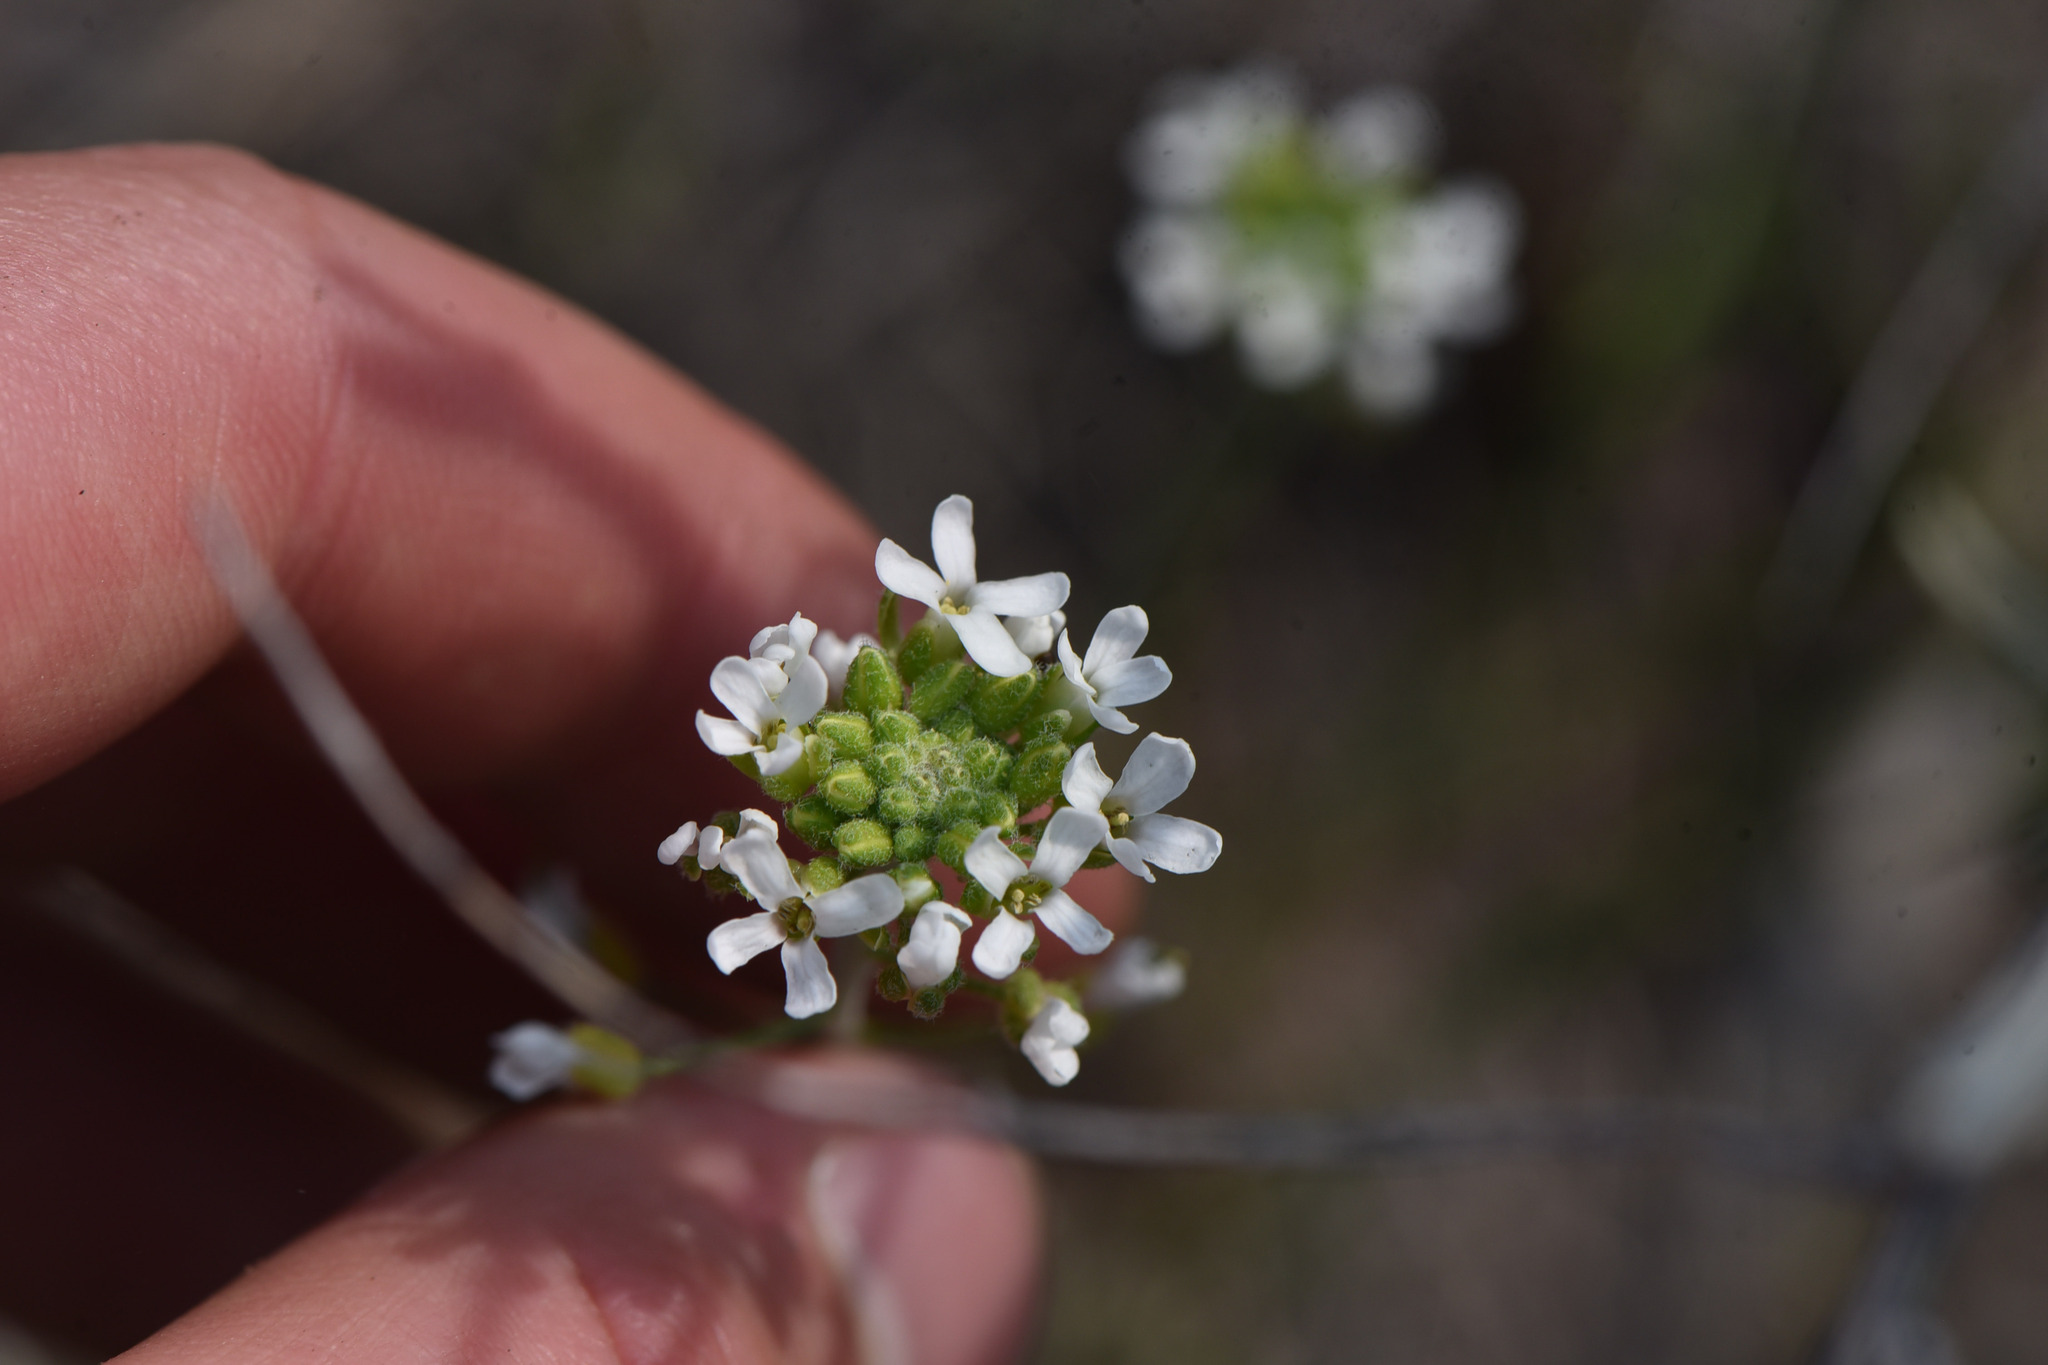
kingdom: Plantae
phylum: Tracheophyta
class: Magnoliopsida
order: Brassicales
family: Brassicaceae
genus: Sandbergia
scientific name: Sandbergia whitedii
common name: Whited's fissurewort
